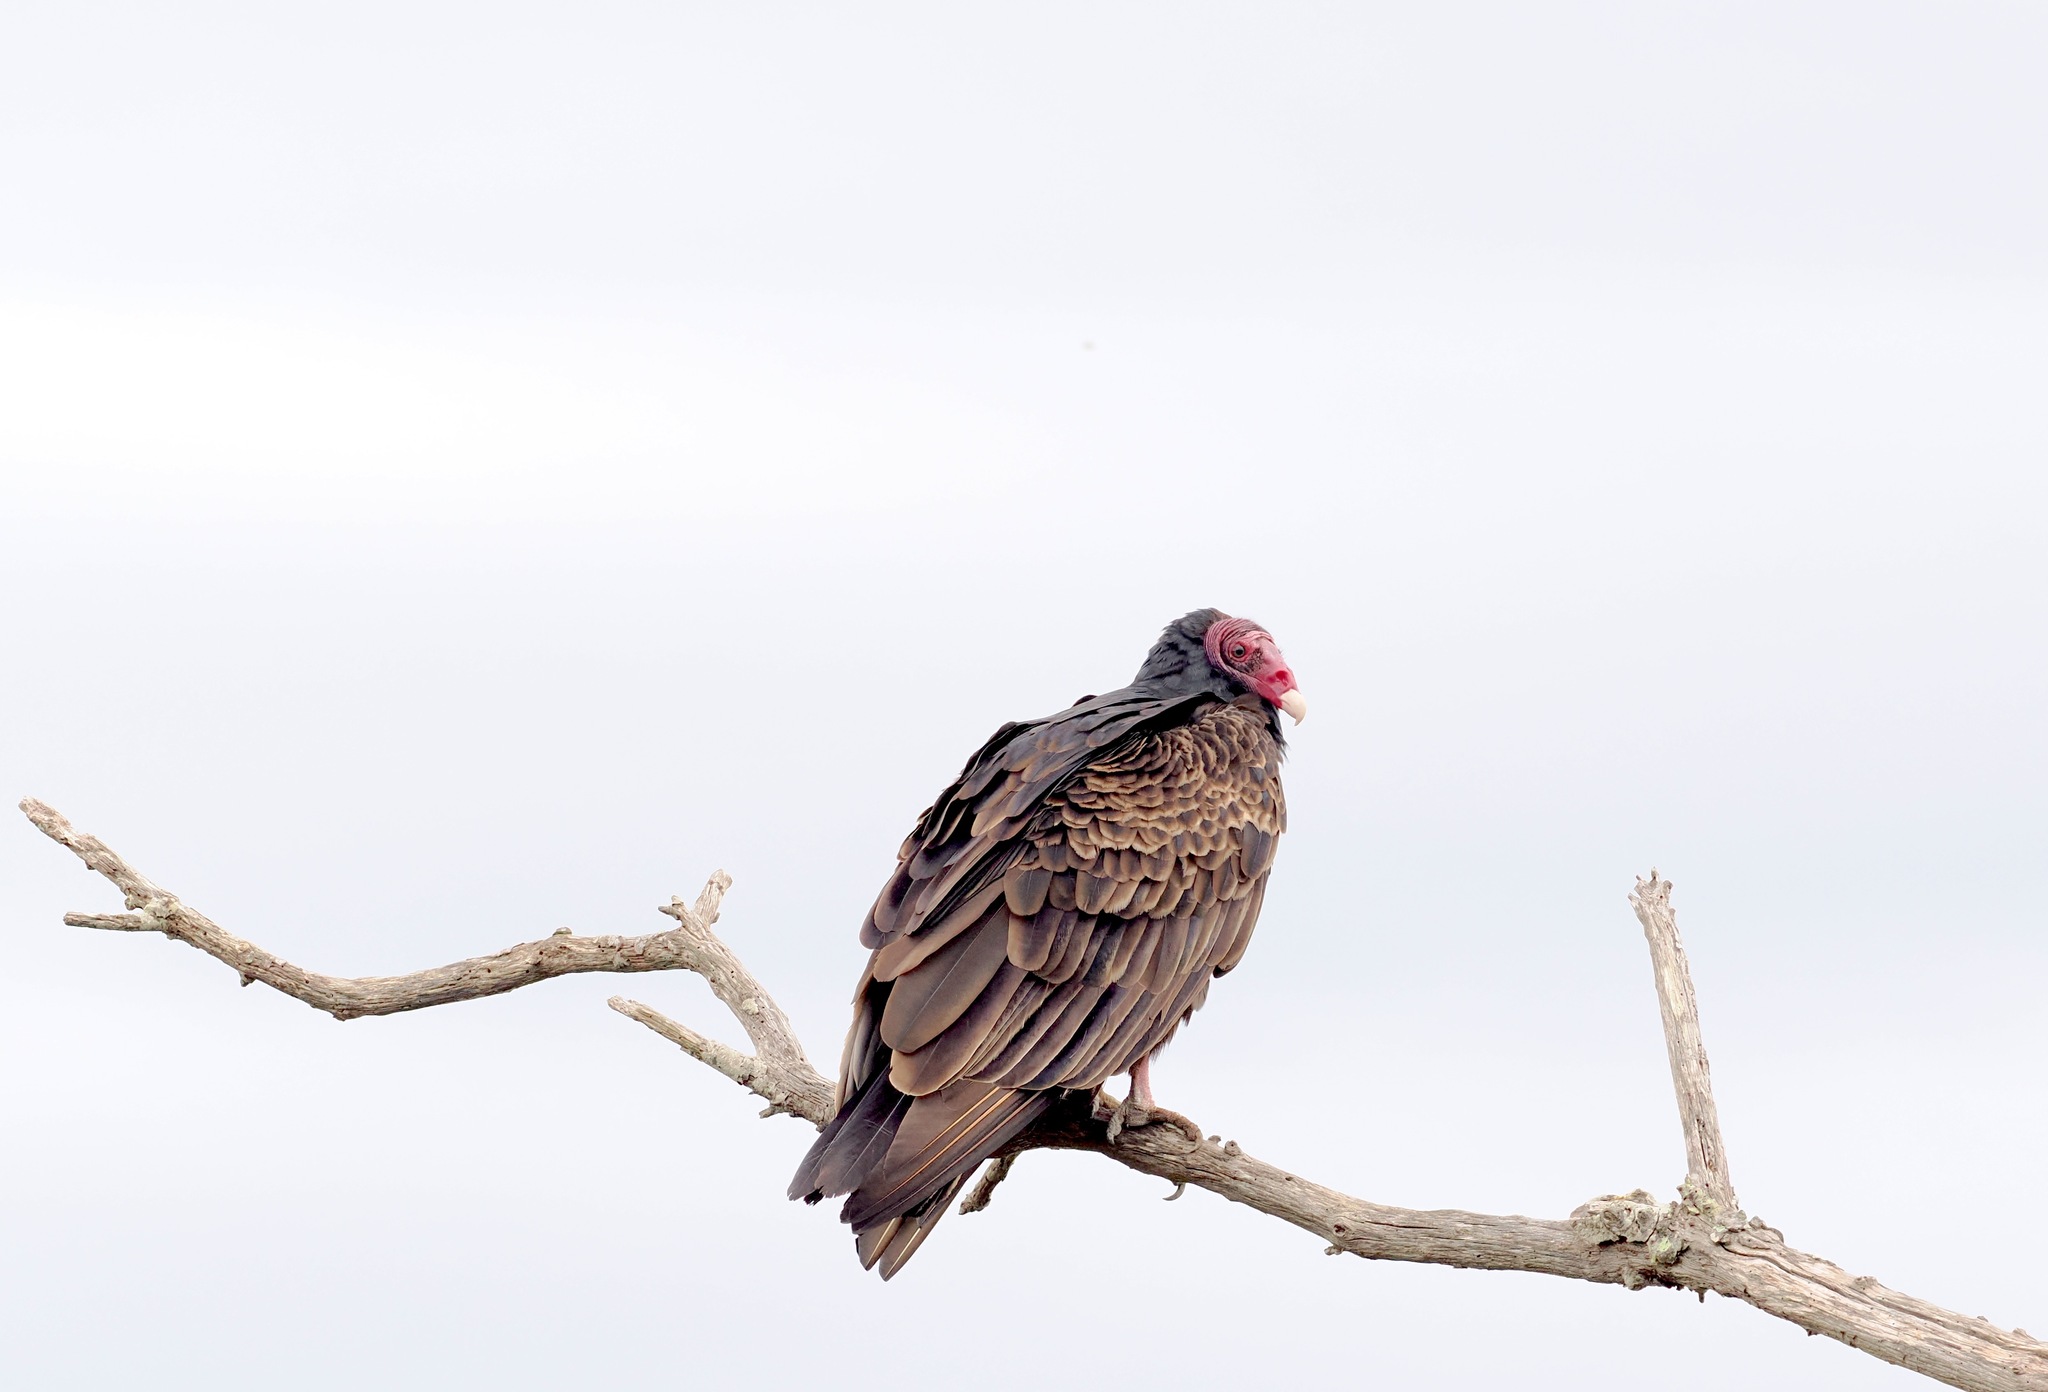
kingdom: Animalia
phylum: Chordata
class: Aves
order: Accipitriformes
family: Cathartidae
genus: Cathartes
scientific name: Cathartes aura
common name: Turkey vulture
